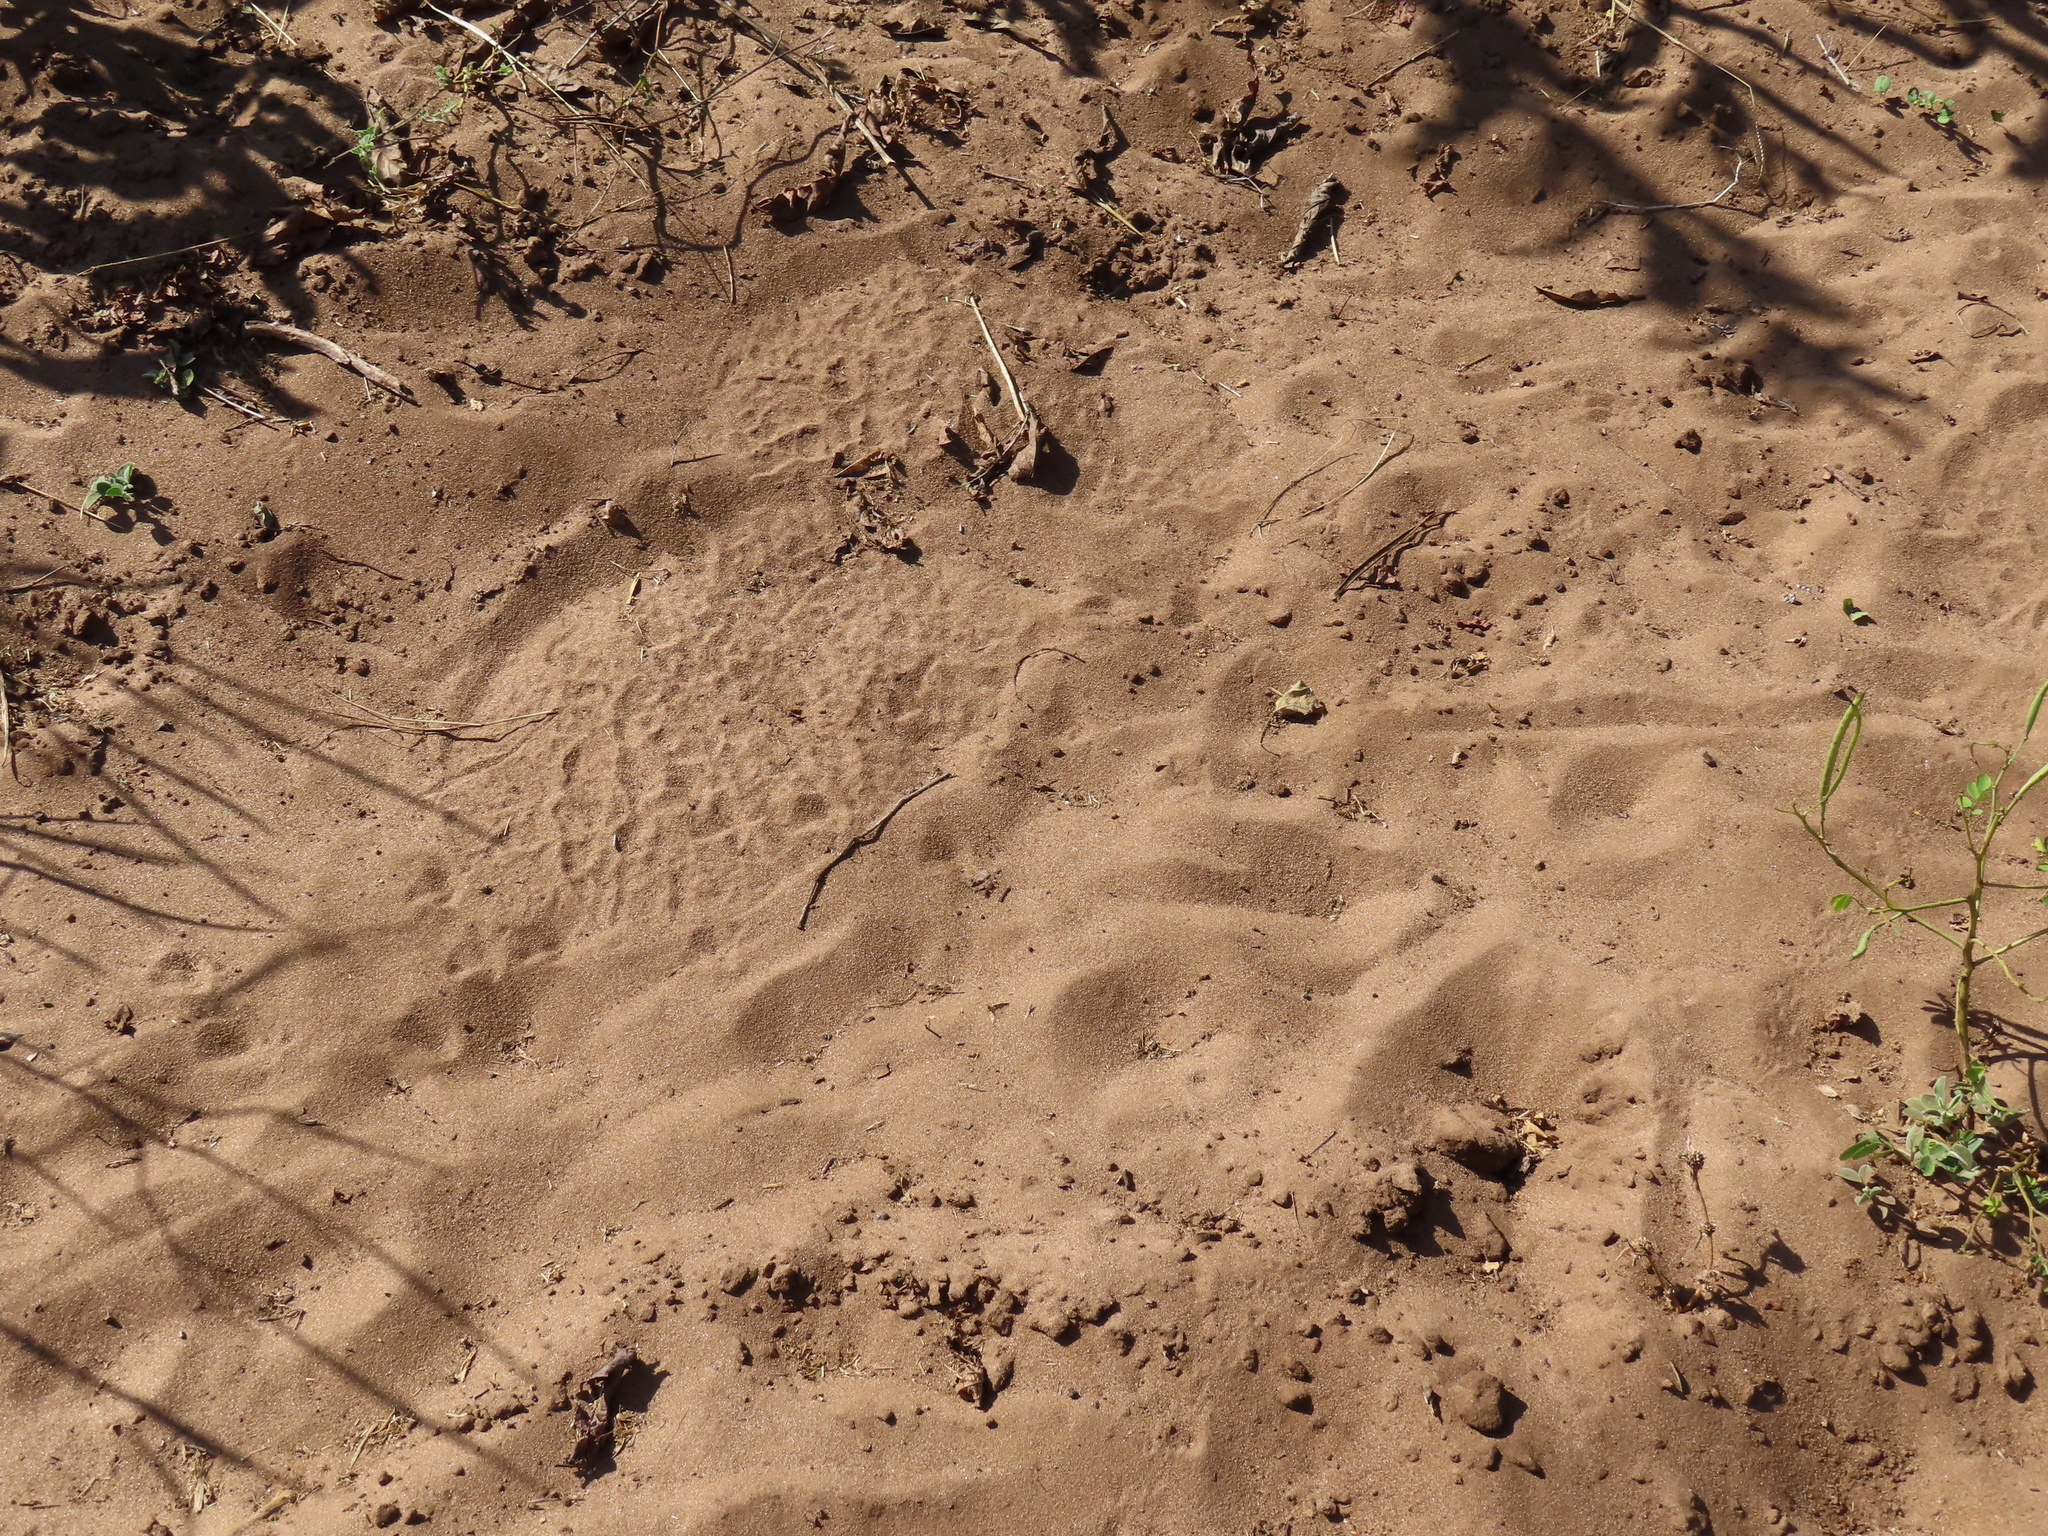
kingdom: Animalia
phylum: Chordata
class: Mammalia
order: Proboscidea
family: Elephantidae
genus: Loxodonta
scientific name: Loxodonta africana
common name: African elephant
